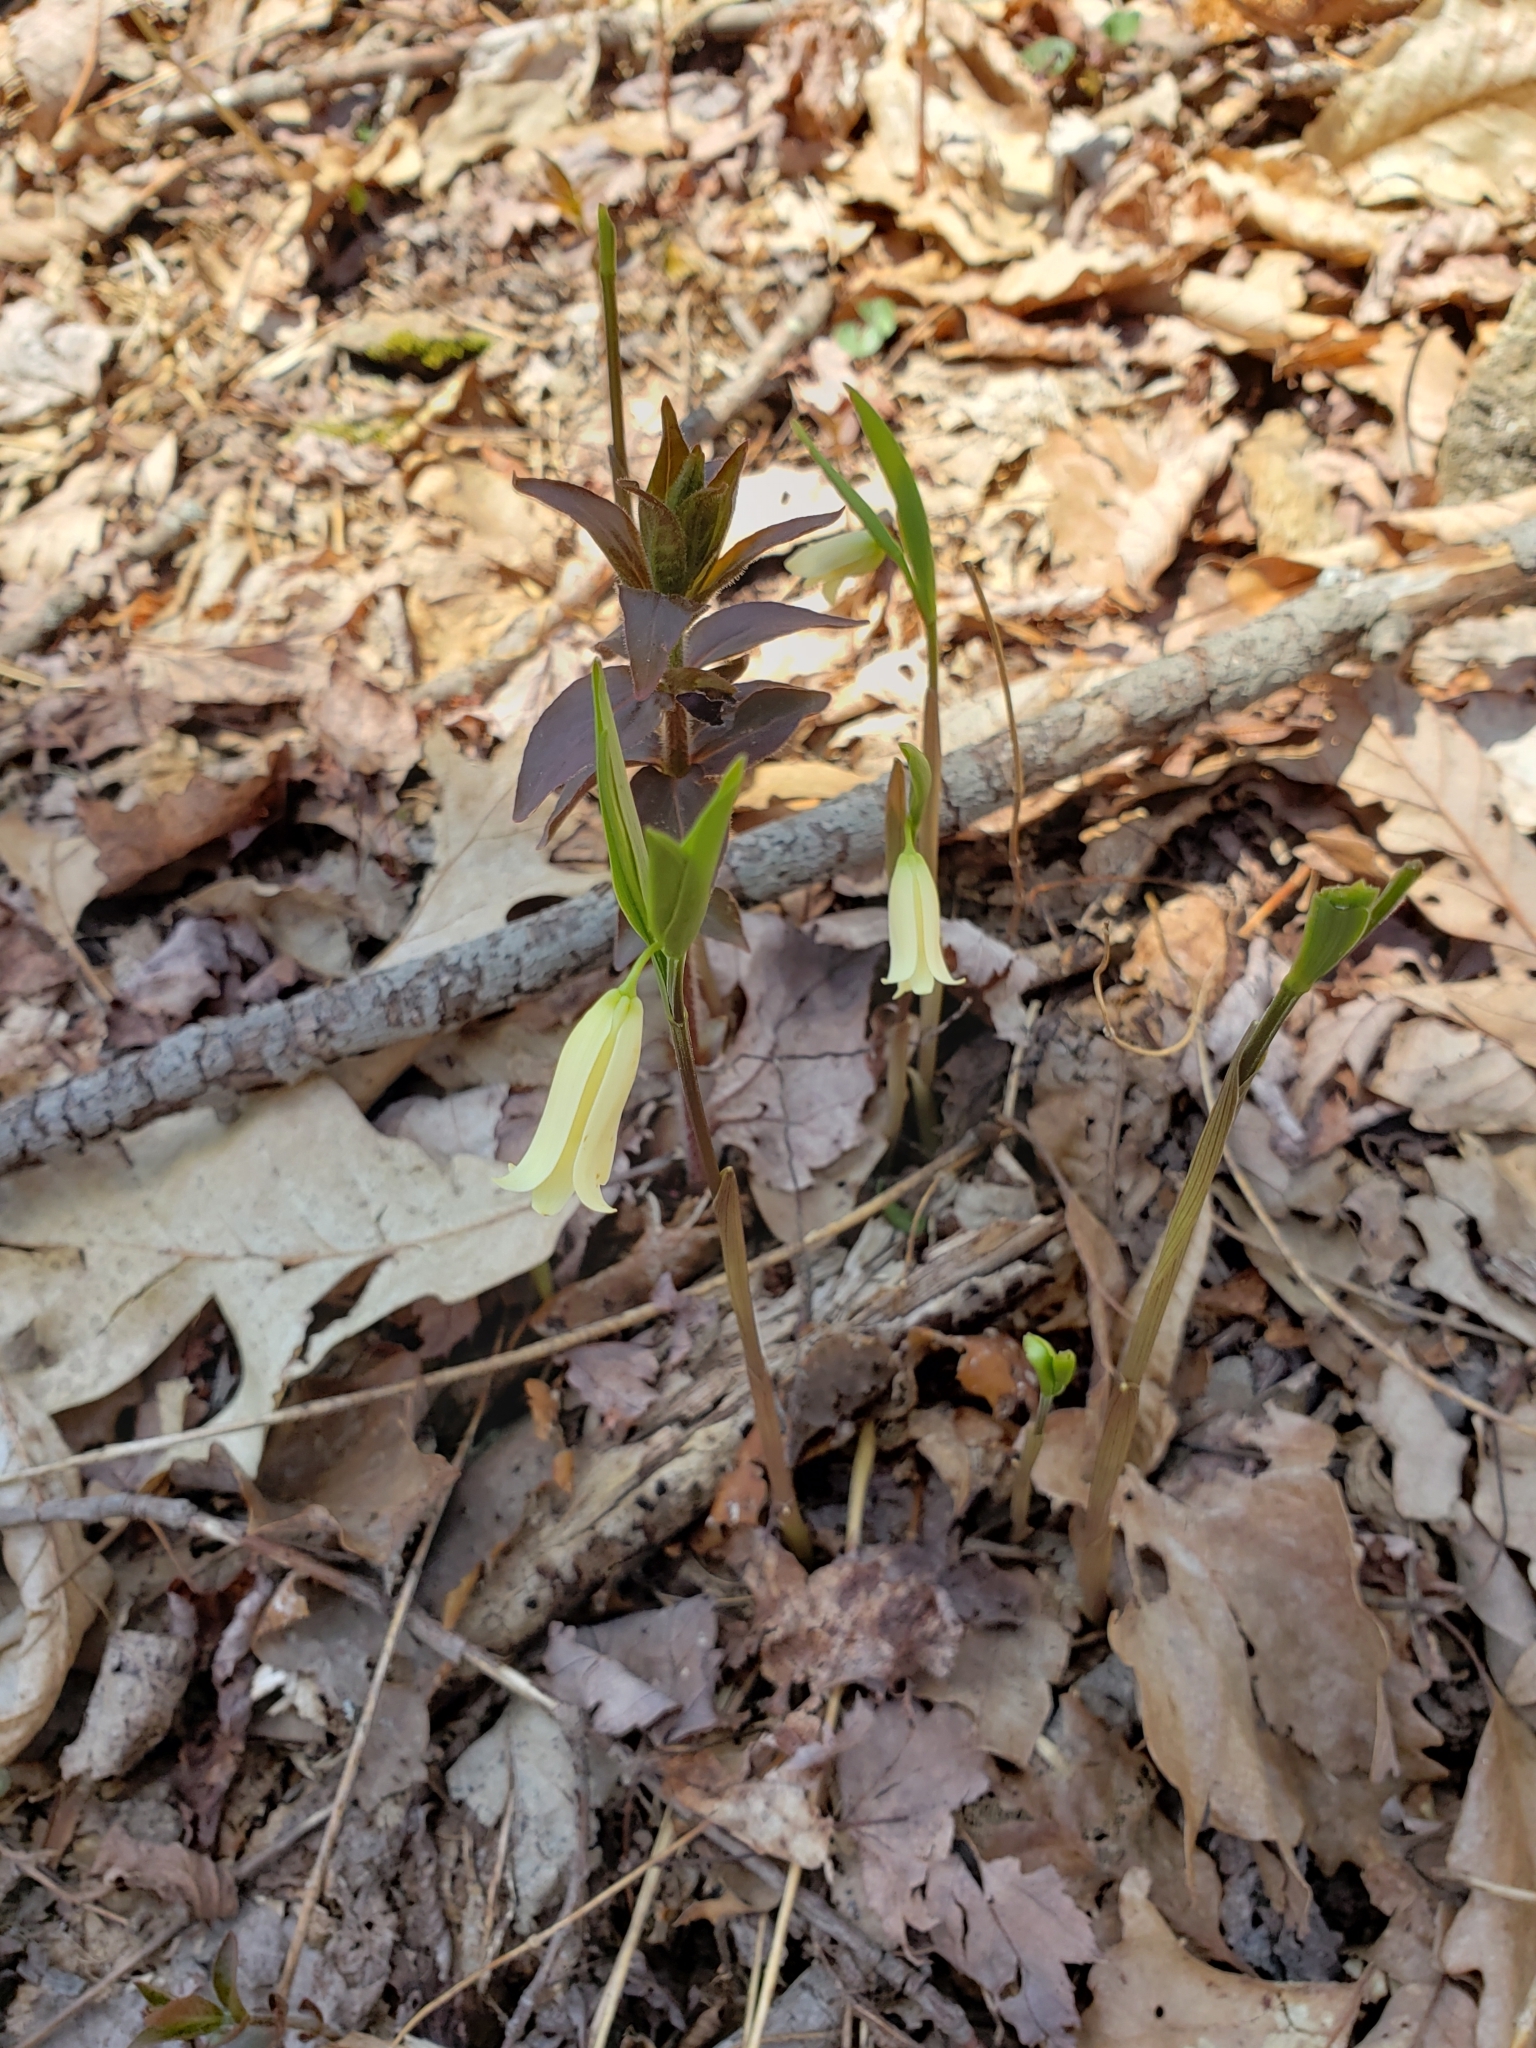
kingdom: Plantae
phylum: Tracheophyta
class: Liliopsida
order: Liliales
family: Colchicaceae
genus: Uvularia
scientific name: Uvularia puberula
